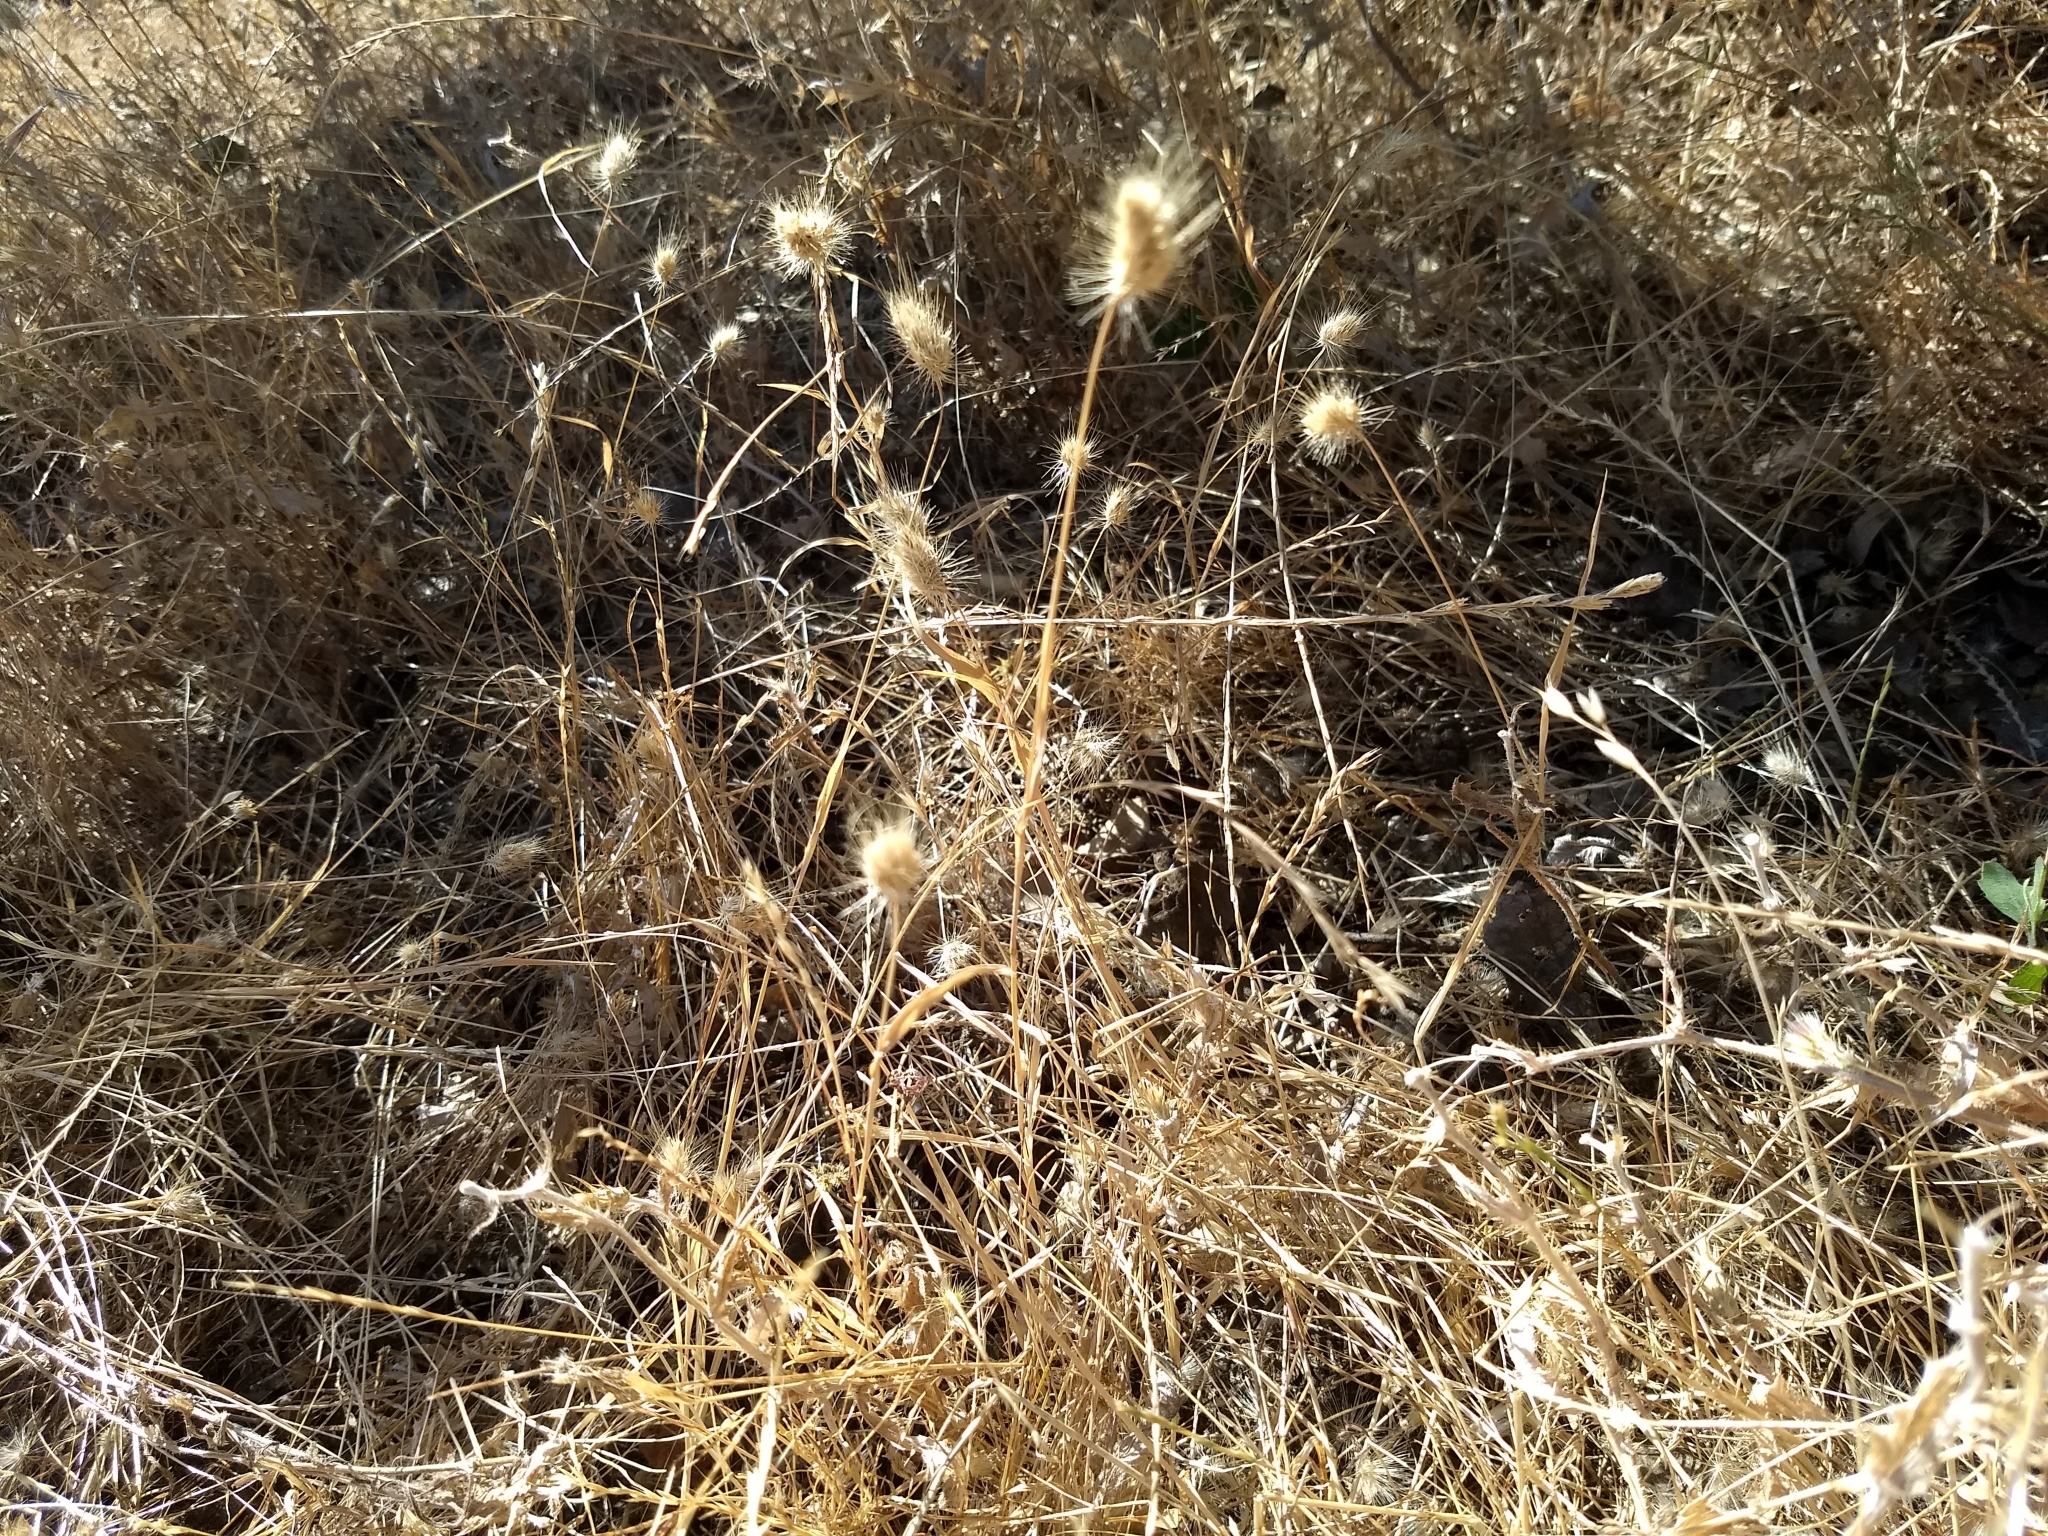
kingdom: Plantae
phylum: Tracheophyta
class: Liliopsida
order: Poales
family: Poaceae
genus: Cynosurus
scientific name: Cynosurus echinatus
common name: Rough dog's-tail
